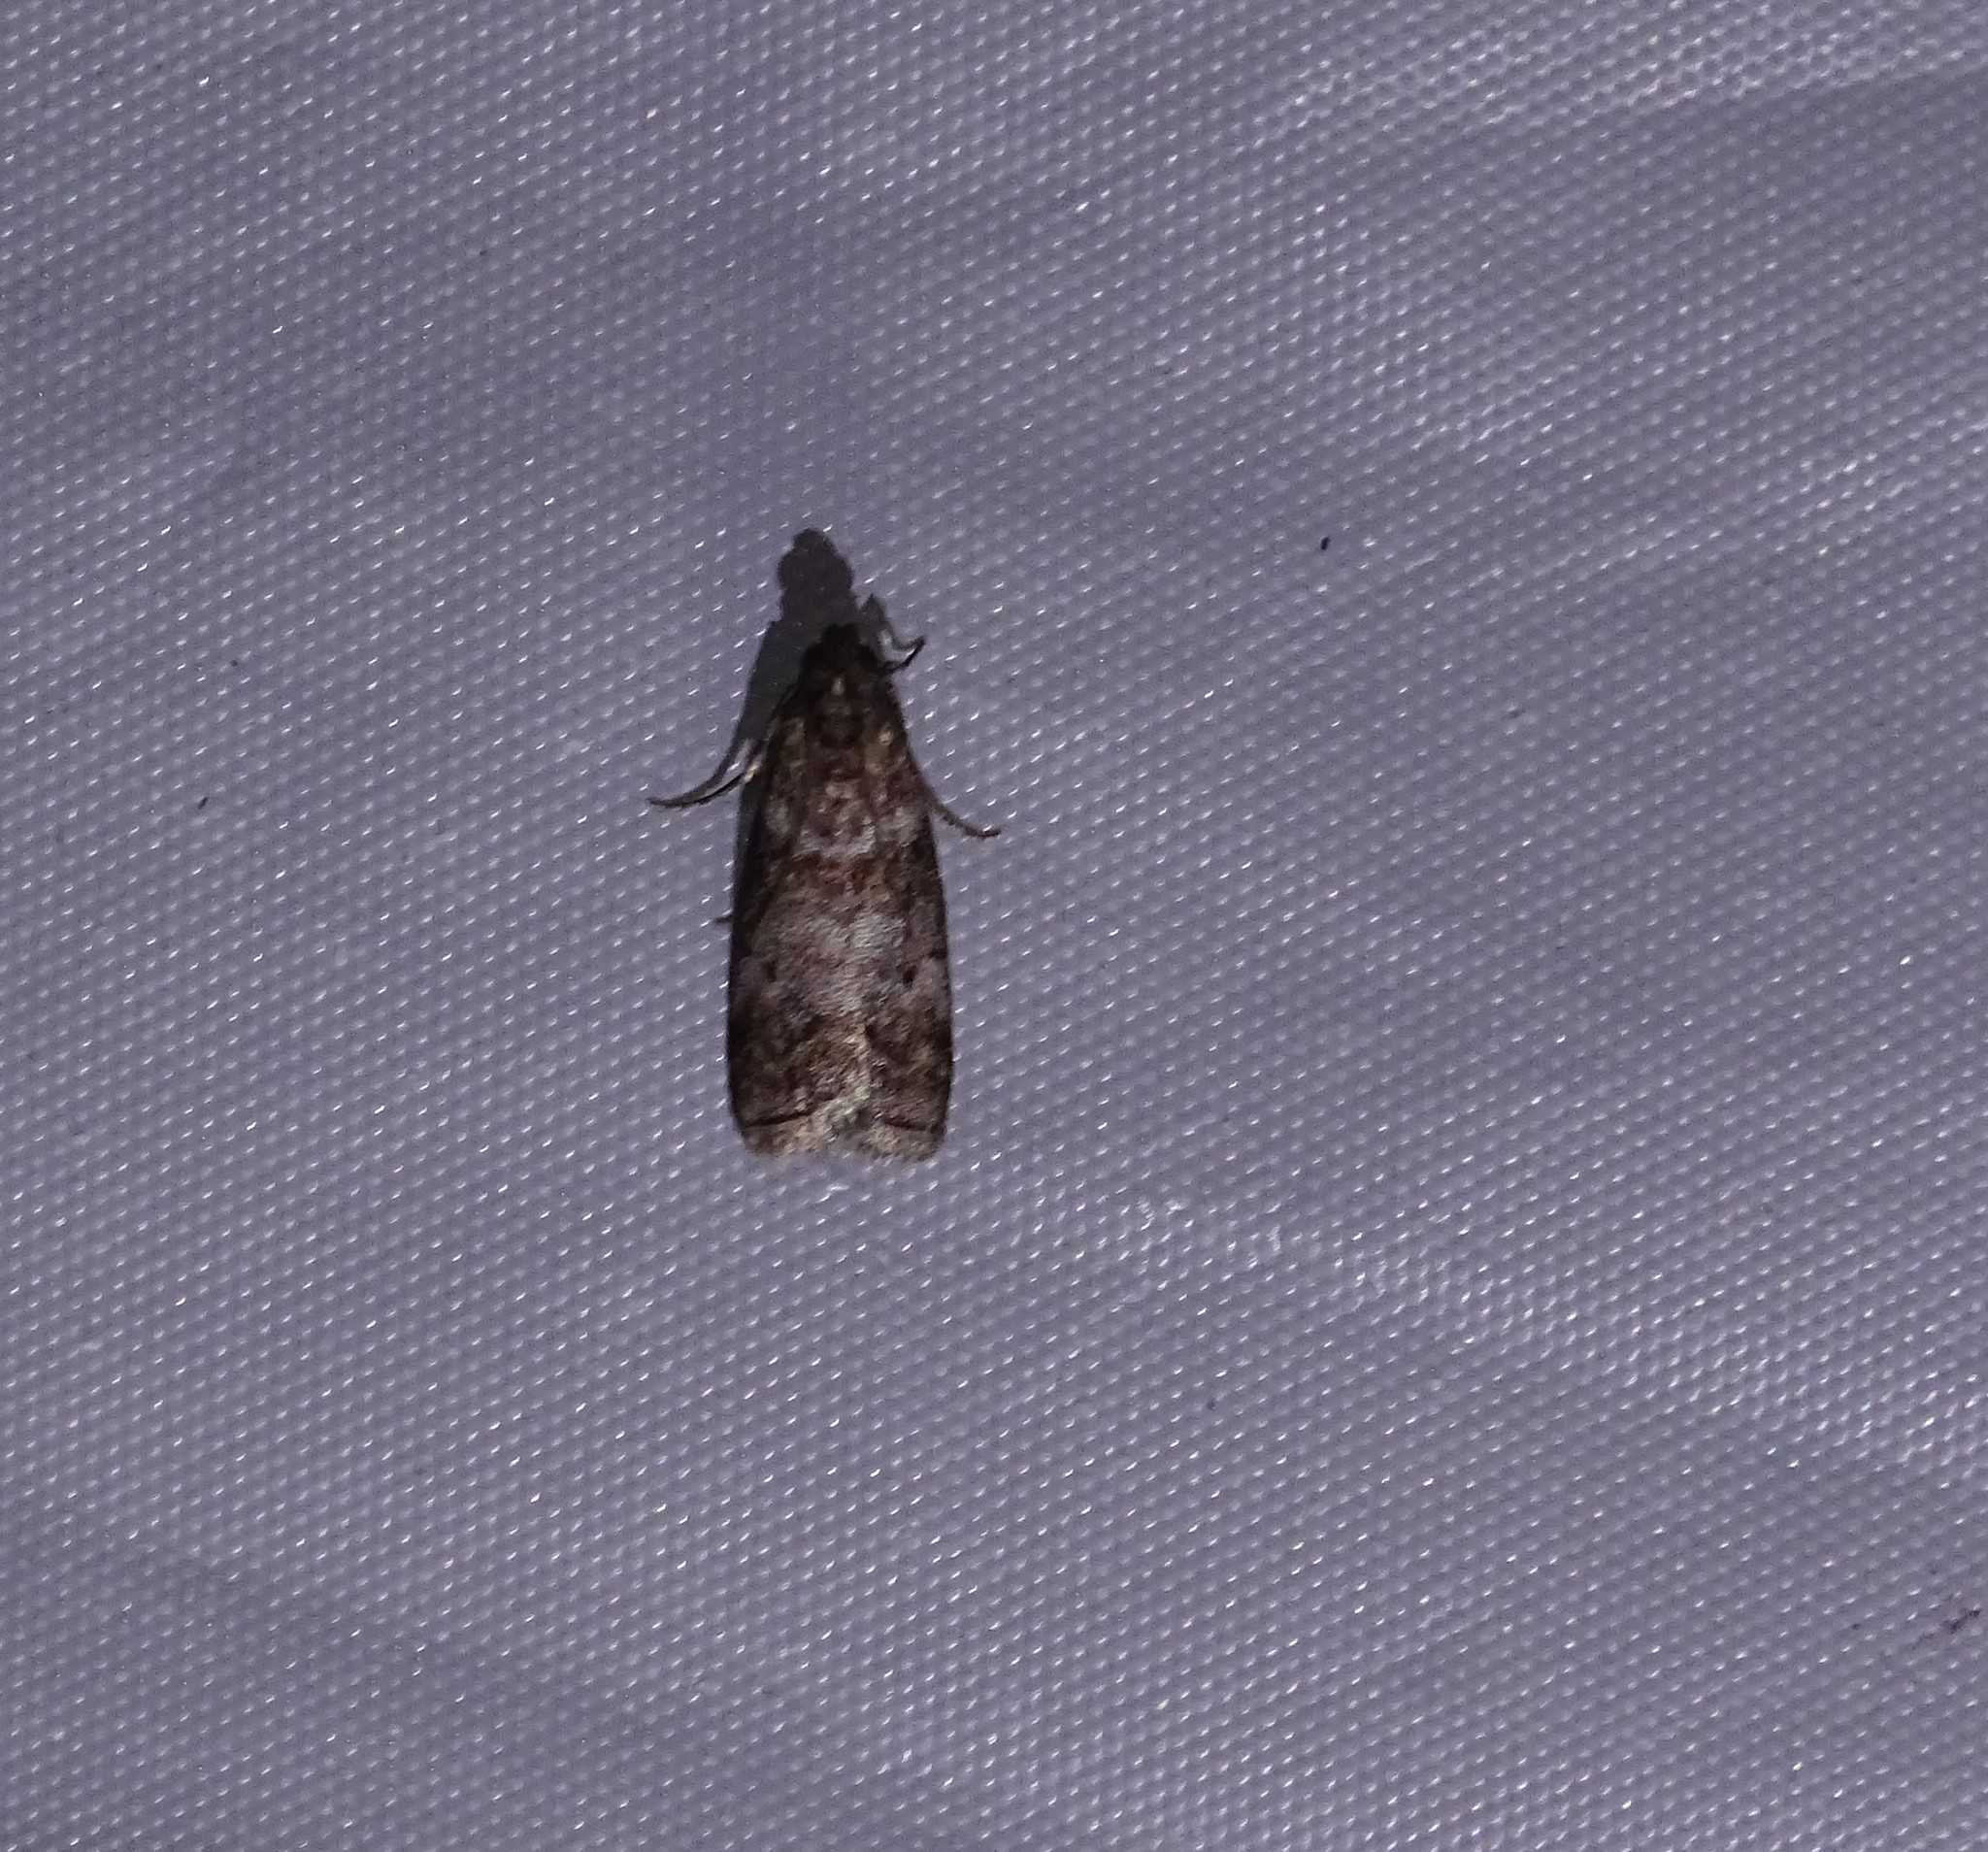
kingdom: Animalia
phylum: Arthropoda
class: Insecta
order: Lepidoptera
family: Pyralidae
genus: Sciota
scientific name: Sciota uvinella
